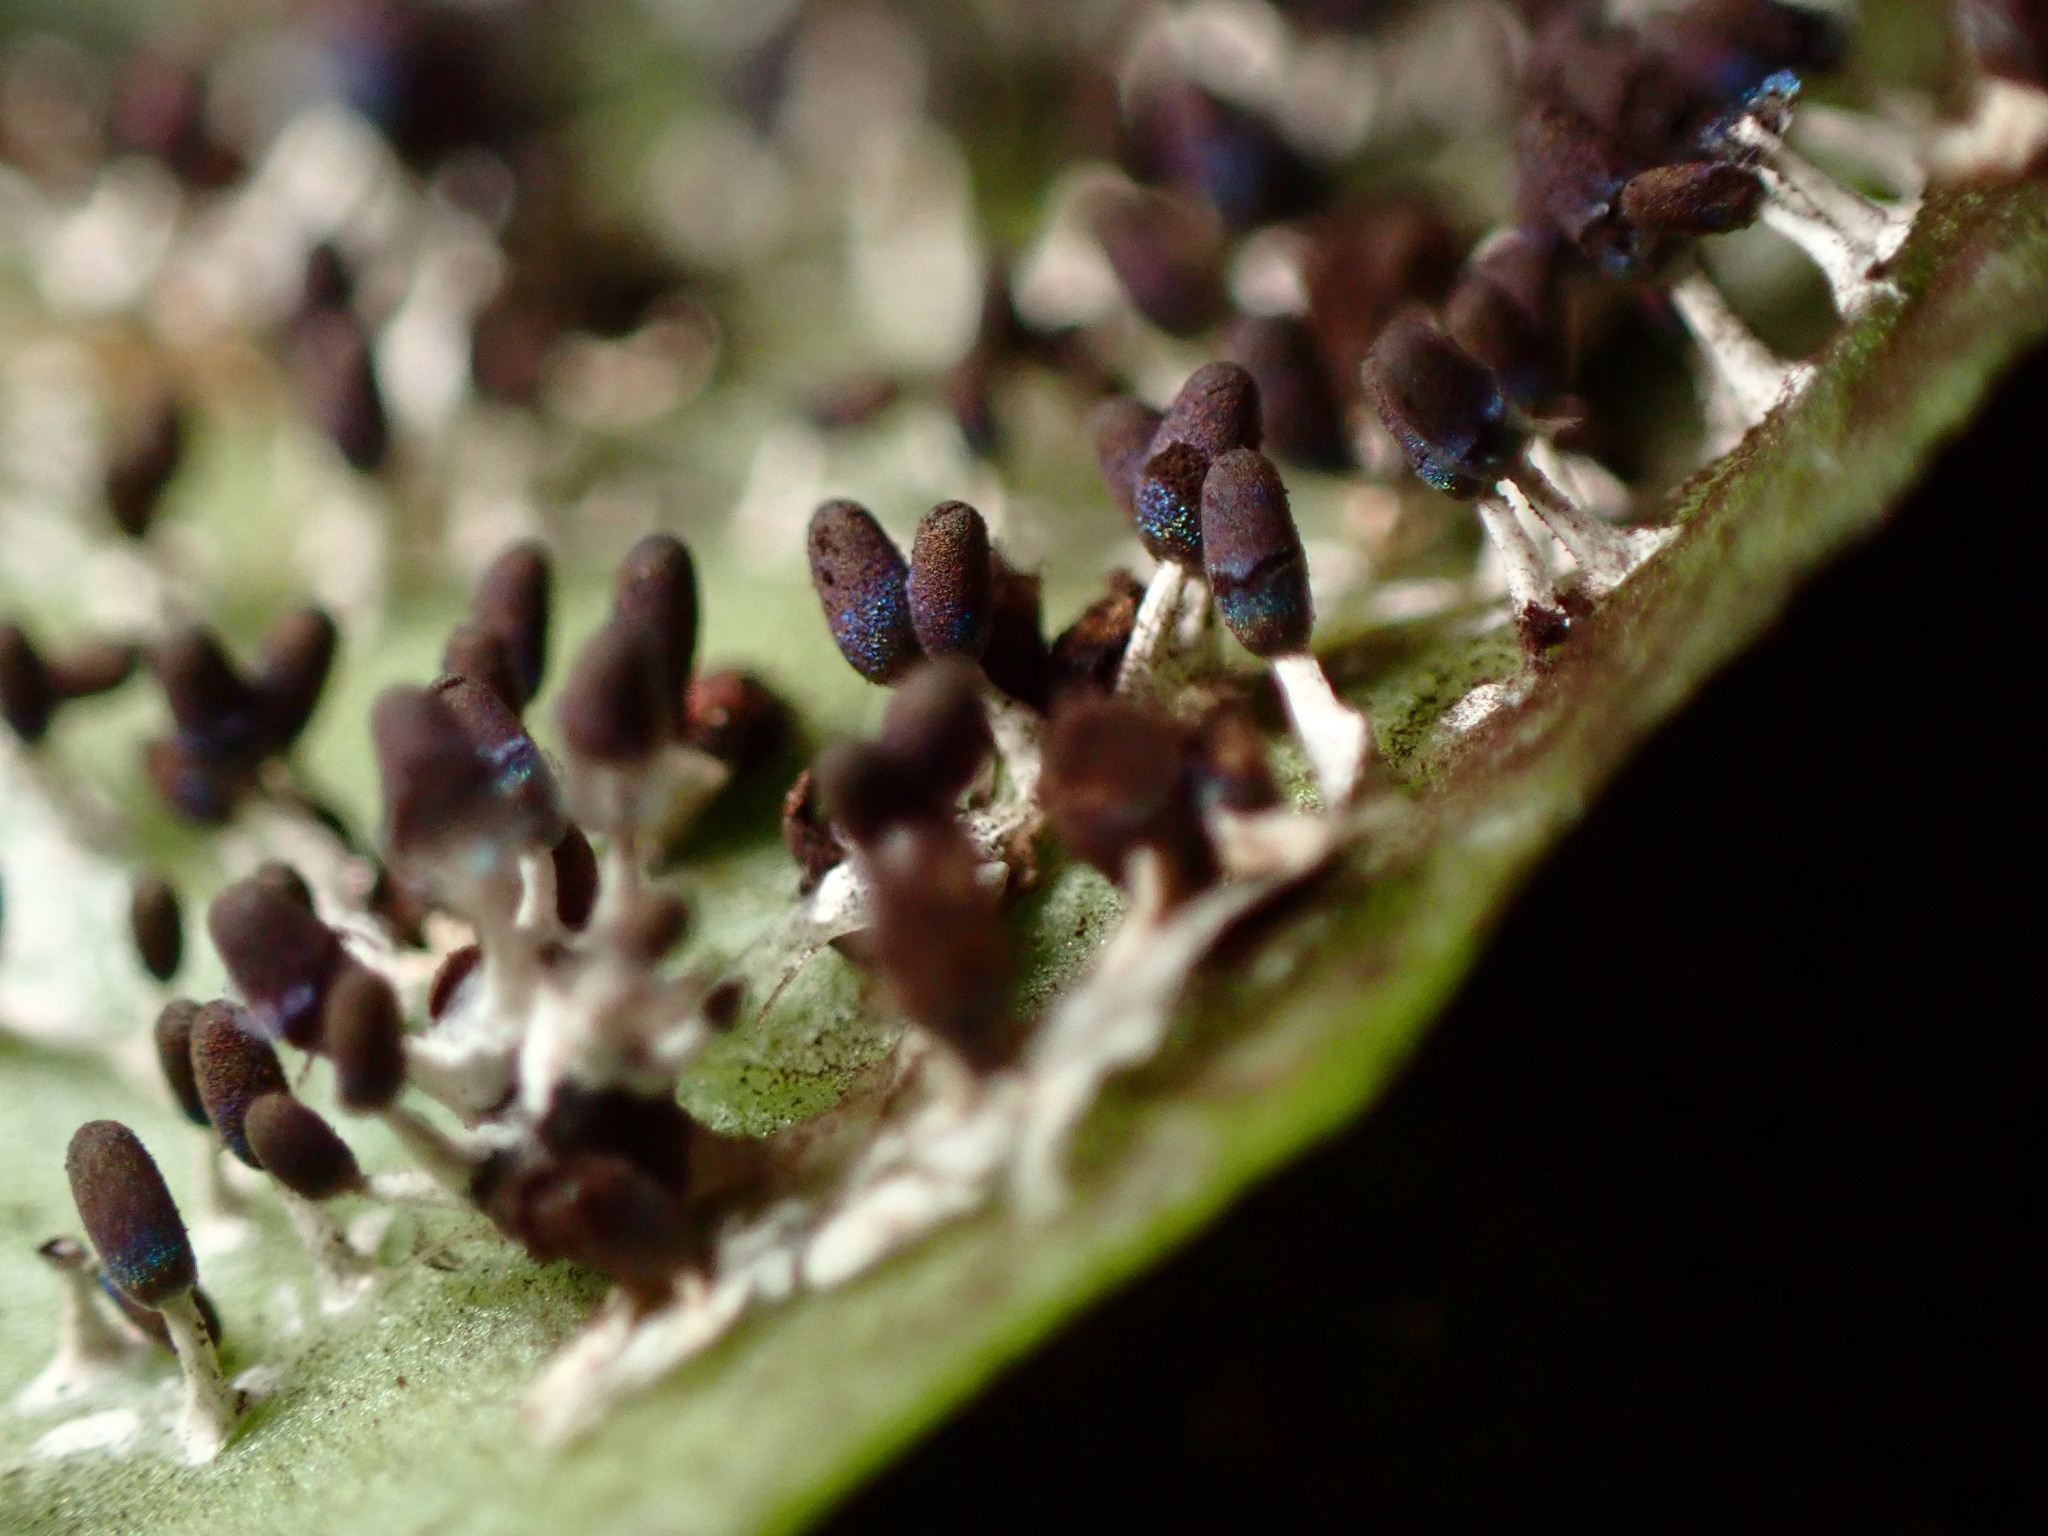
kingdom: Protozoa
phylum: Mycetozoa
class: Myxomycetes
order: Physarales
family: Didymiaceae
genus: Diachea
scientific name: Diachea leucopodia
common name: White-footed slime
